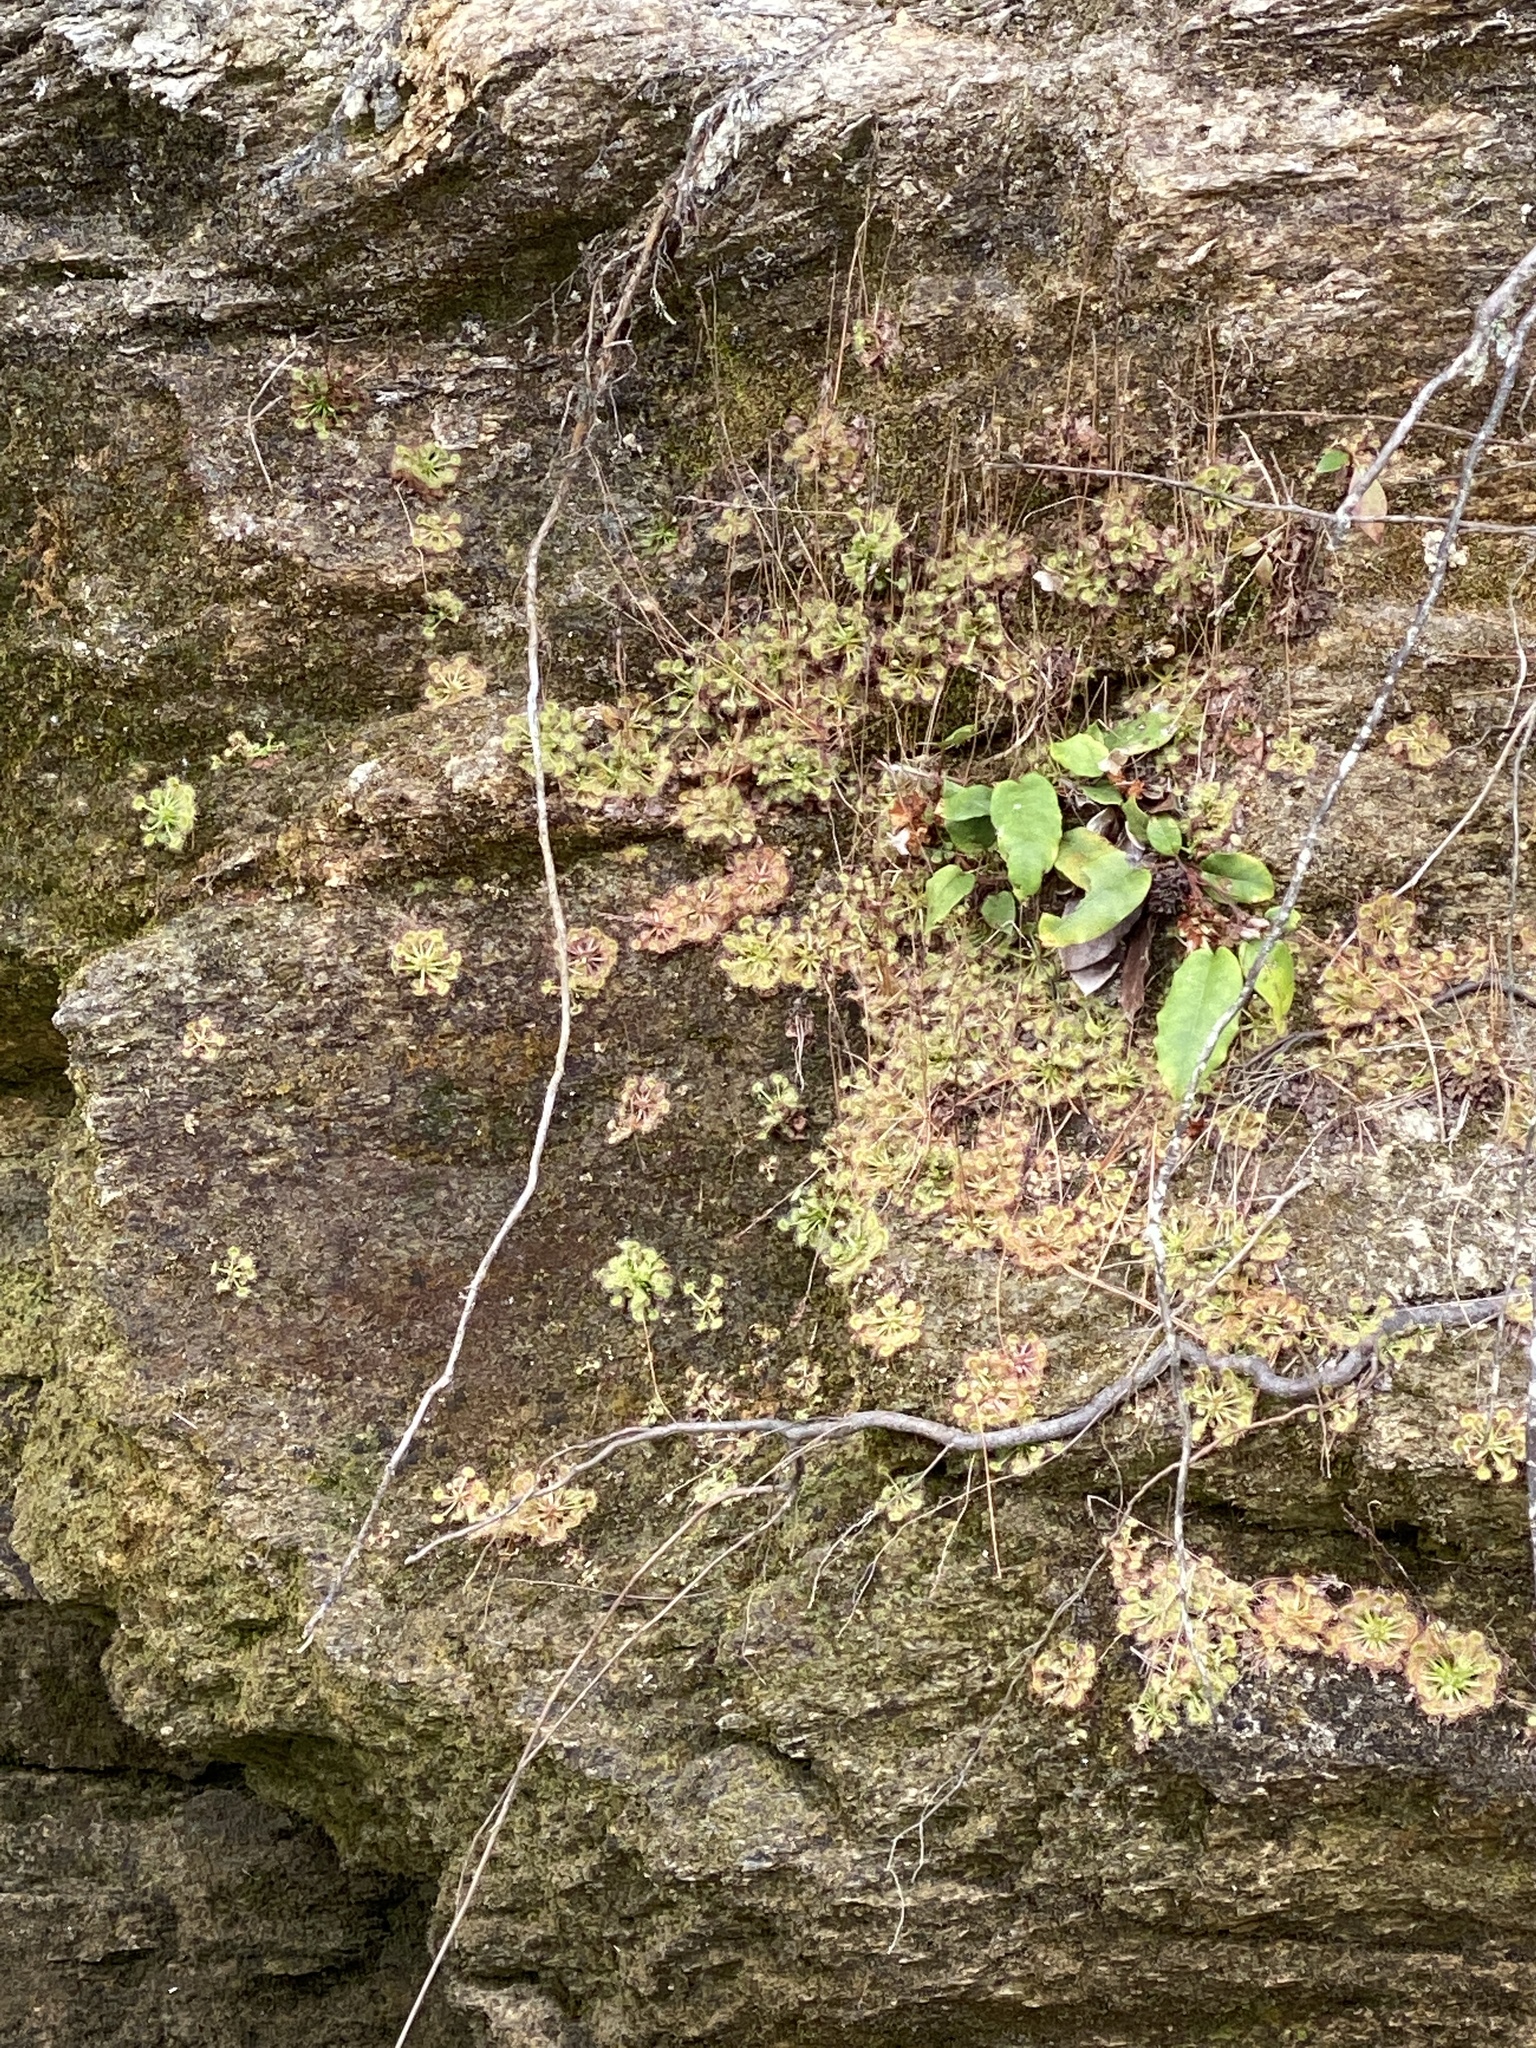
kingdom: Plantae
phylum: Tracheophyta
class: Magnoliopsida
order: Ericales
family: Ericaceae
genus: Epigaea
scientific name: Epigaea repens
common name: Gravelroot
